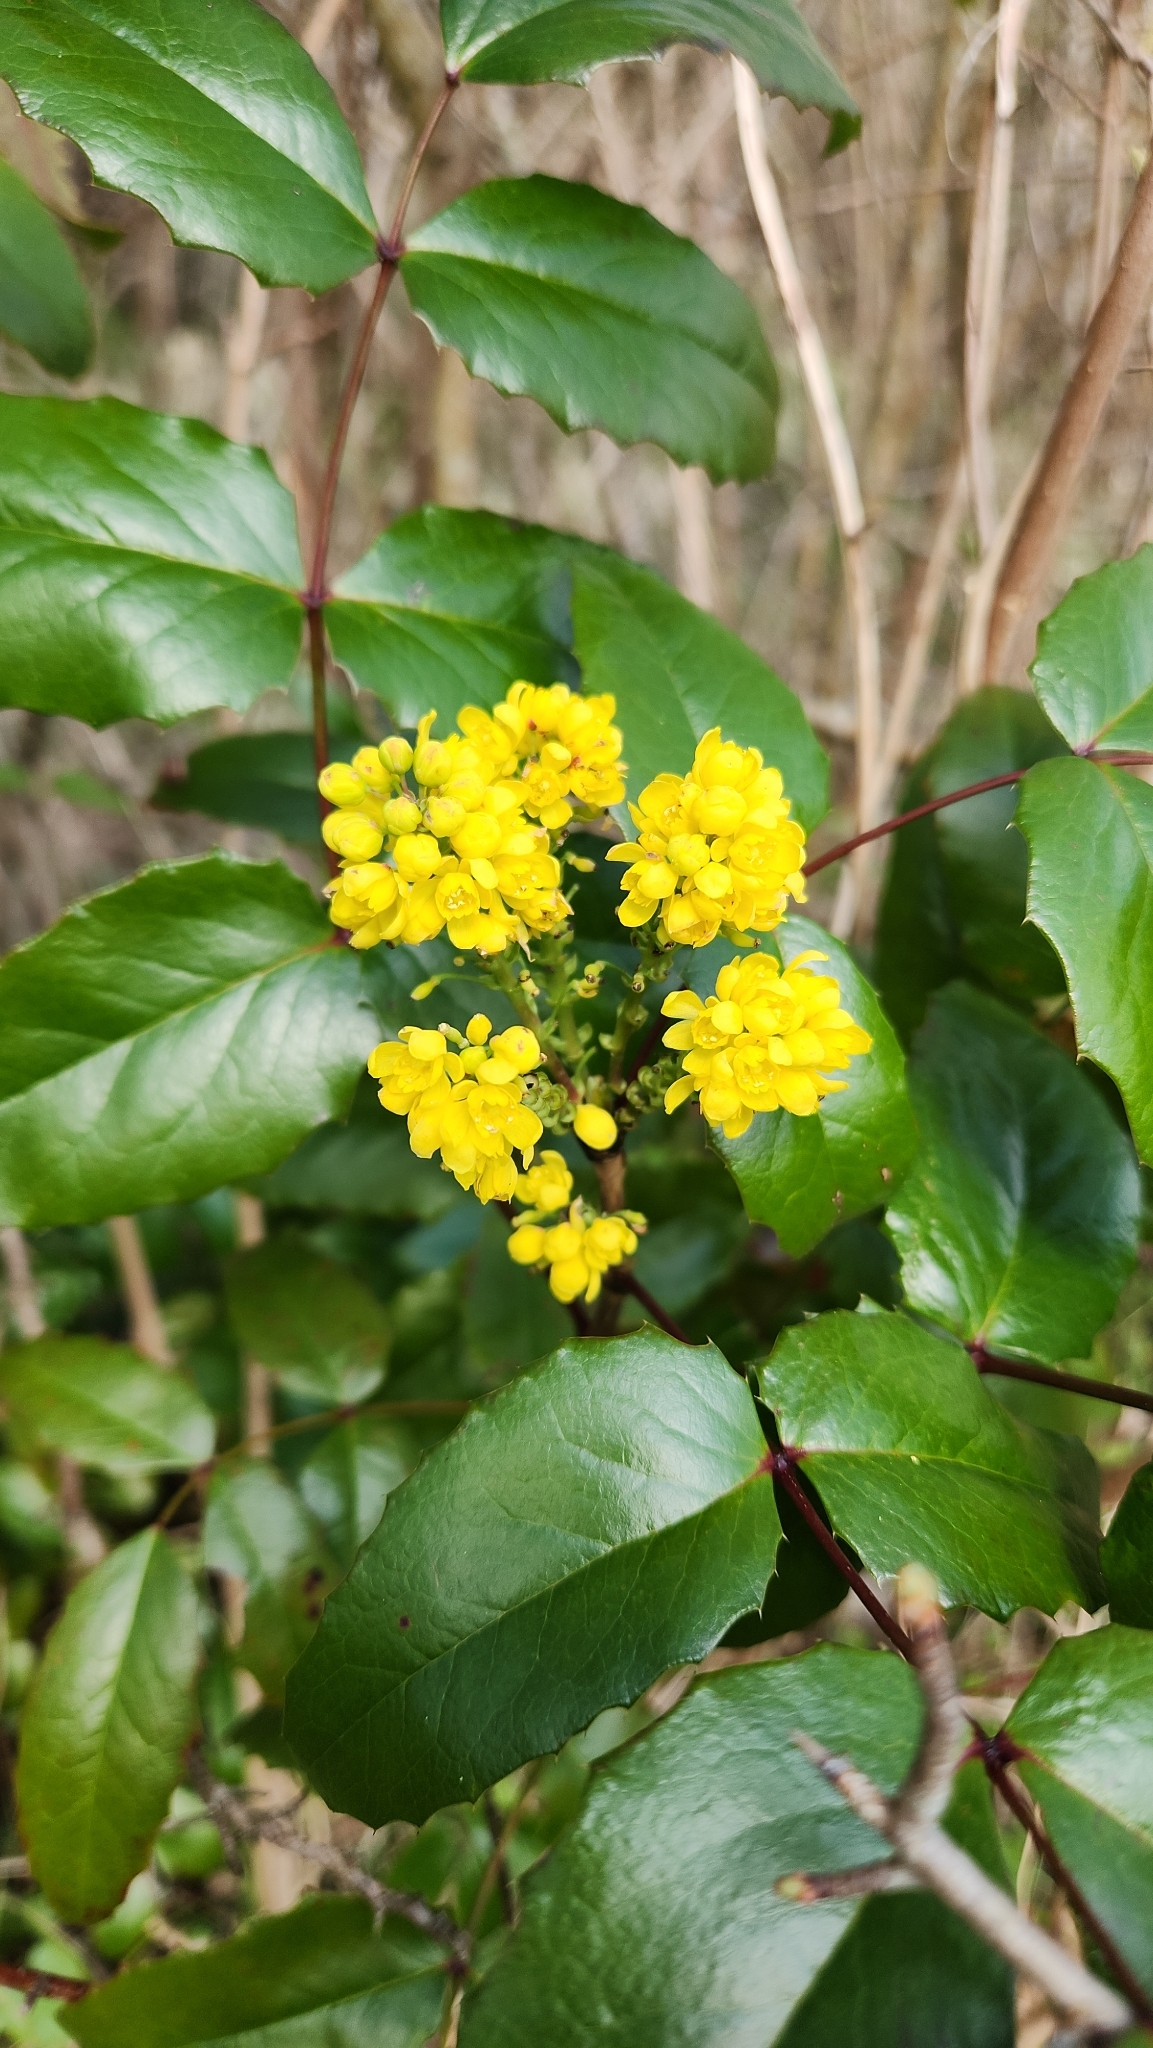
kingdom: Plantae
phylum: Tracheophyta
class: Magnoliopsida
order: Ranunculales
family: Berberidaceae
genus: Mahonia
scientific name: Mahonia aquifolium
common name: Oregon-grape
